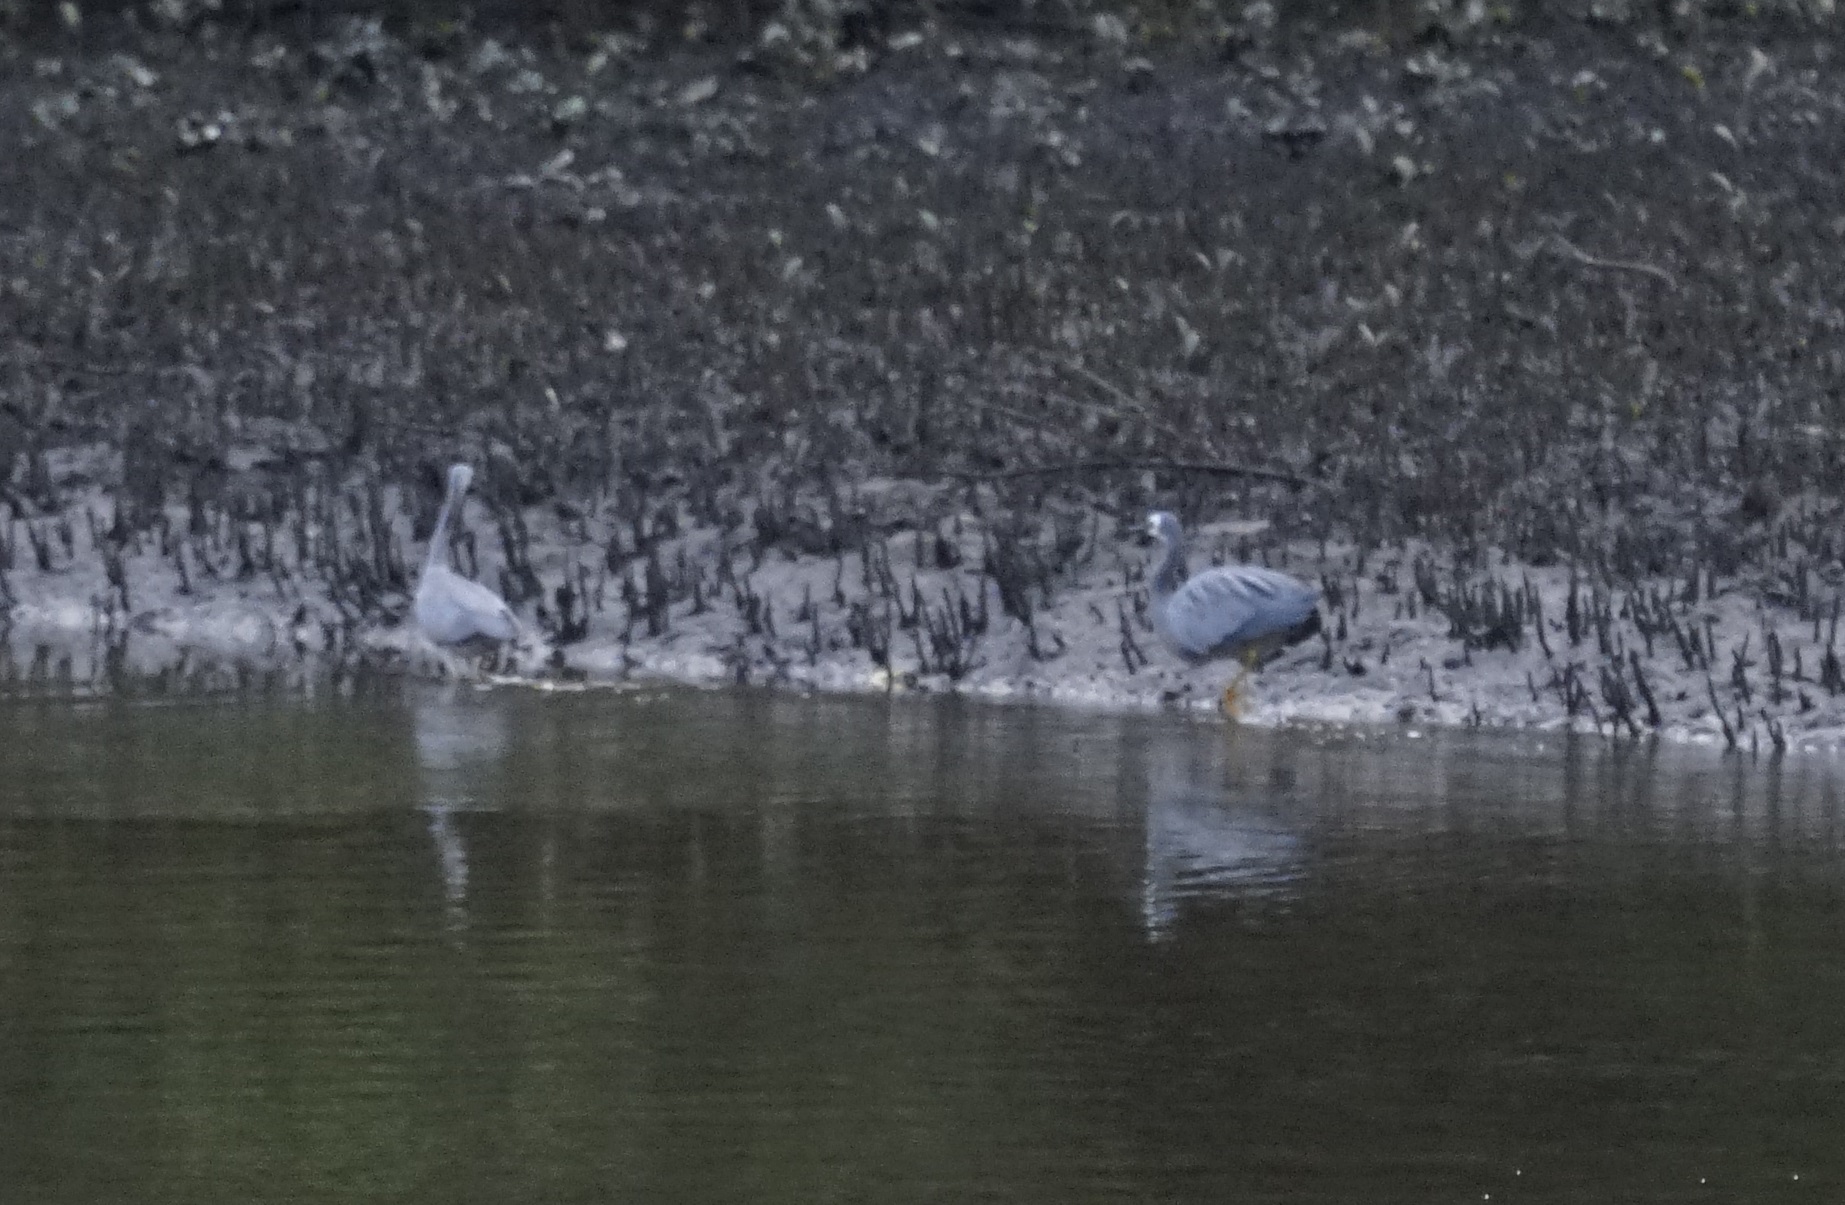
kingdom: Animalia
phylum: Chordata
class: Aves
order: Pelecaniformes
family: Ardeidae
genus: Egretta
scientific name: Egretta novaehollandiae
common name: White-faced heron
